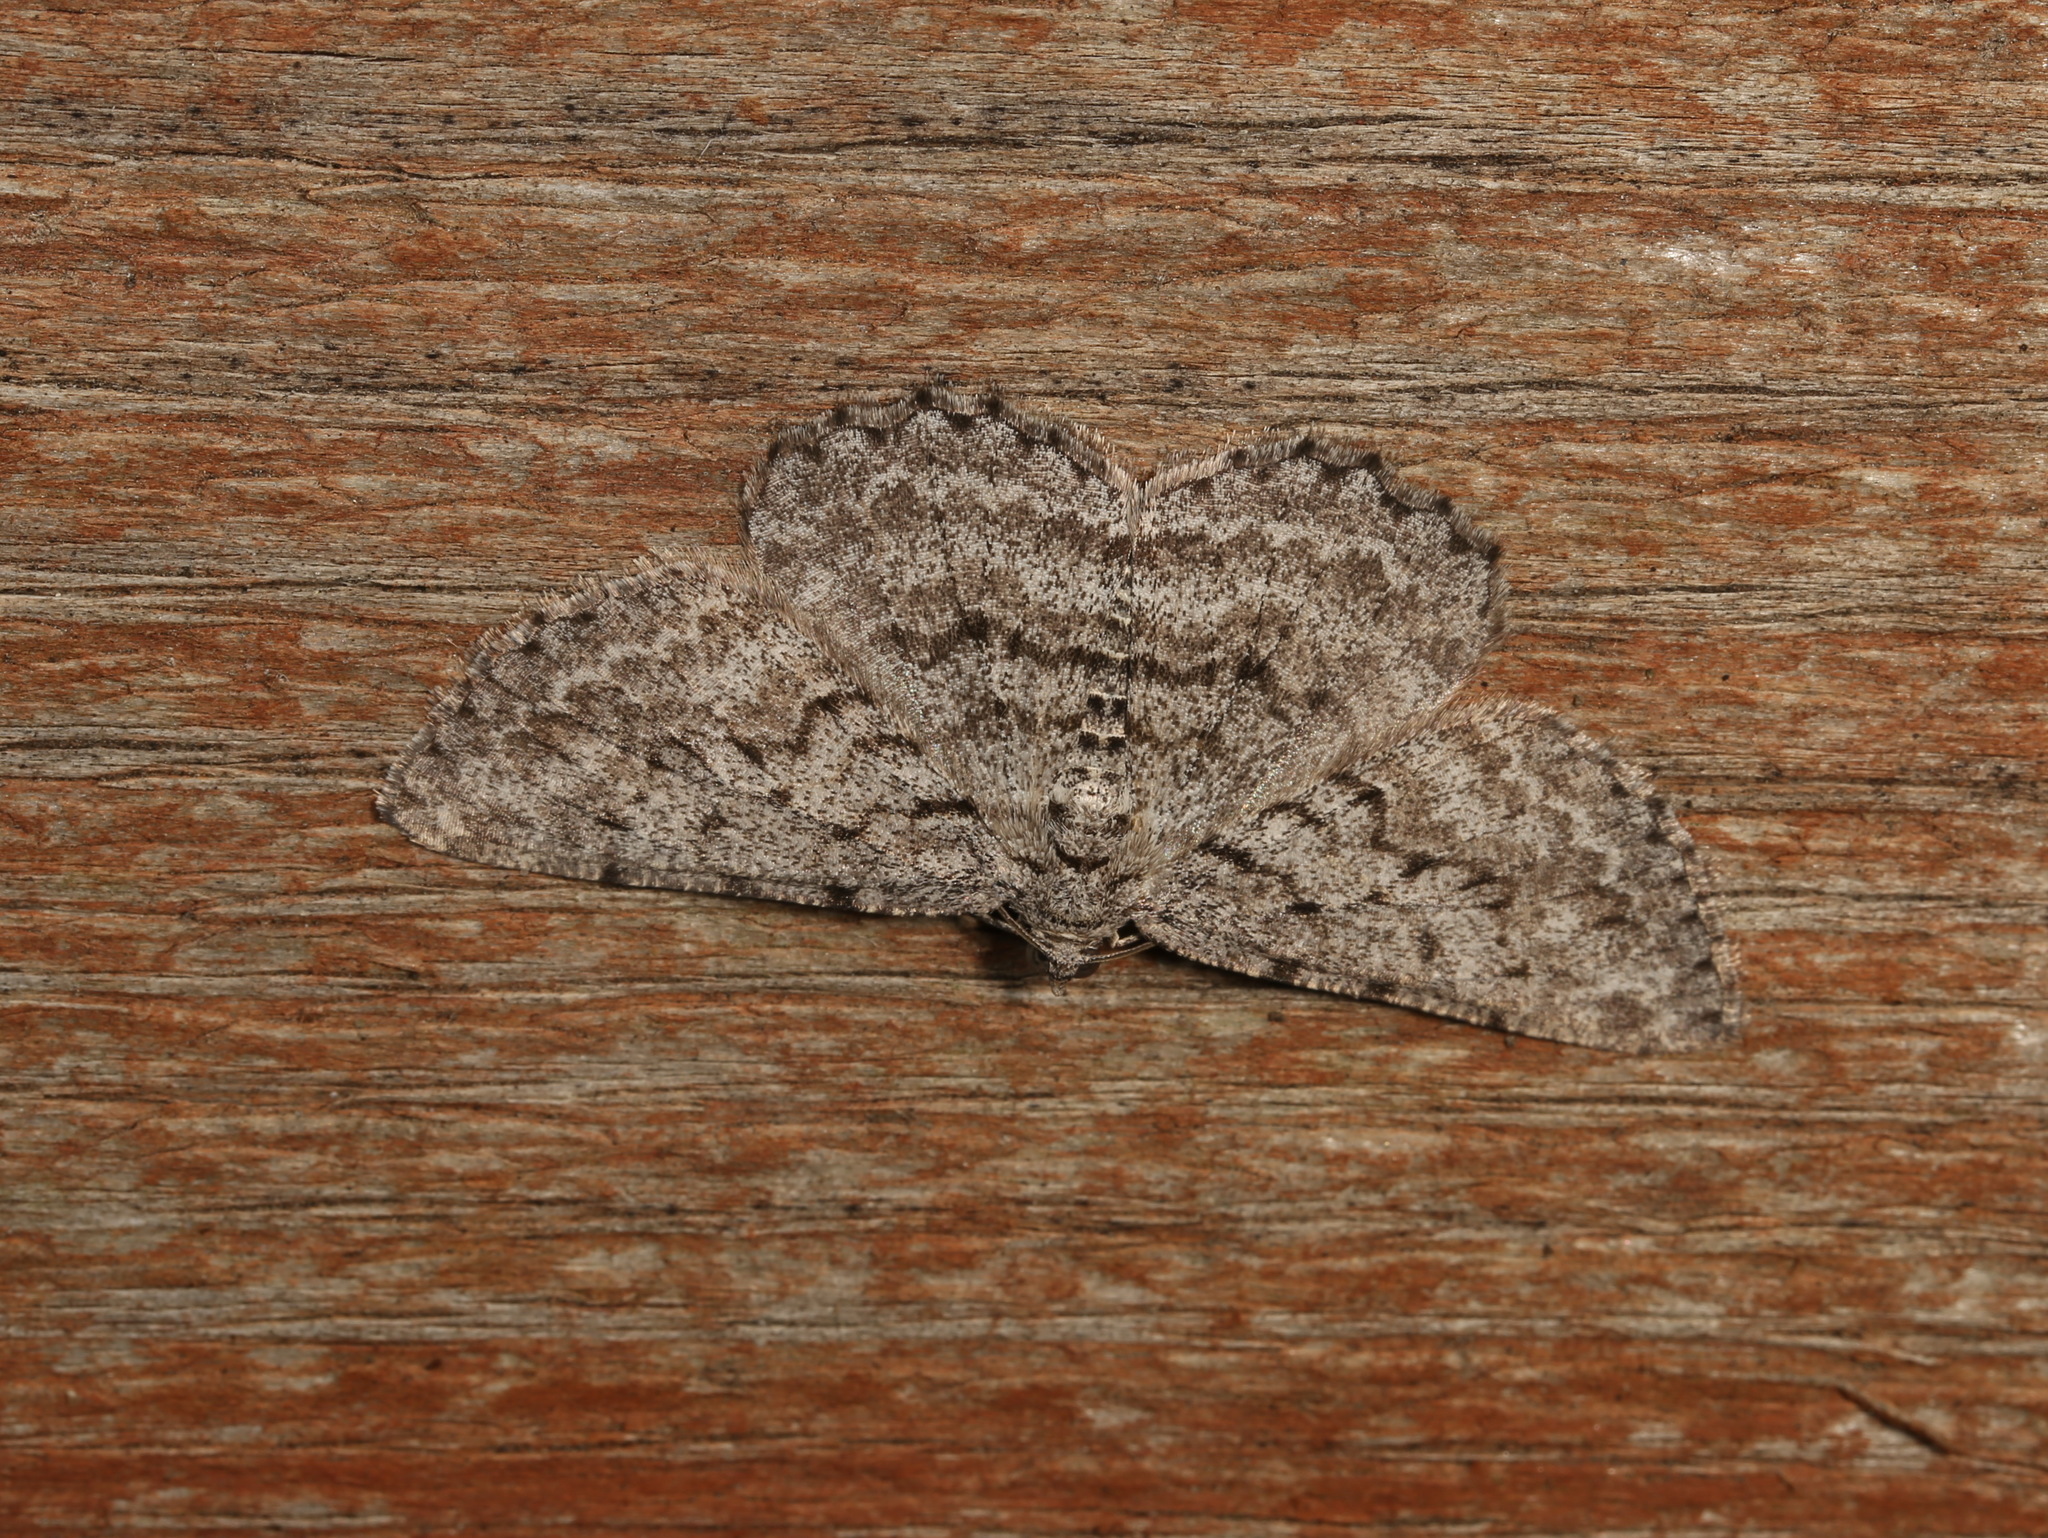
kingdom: Animalia
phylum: Arthropoda
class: Insecta
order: Lepidoptera
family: Geometridae
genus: Psilosticha
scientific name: Psilosticha absorpta
